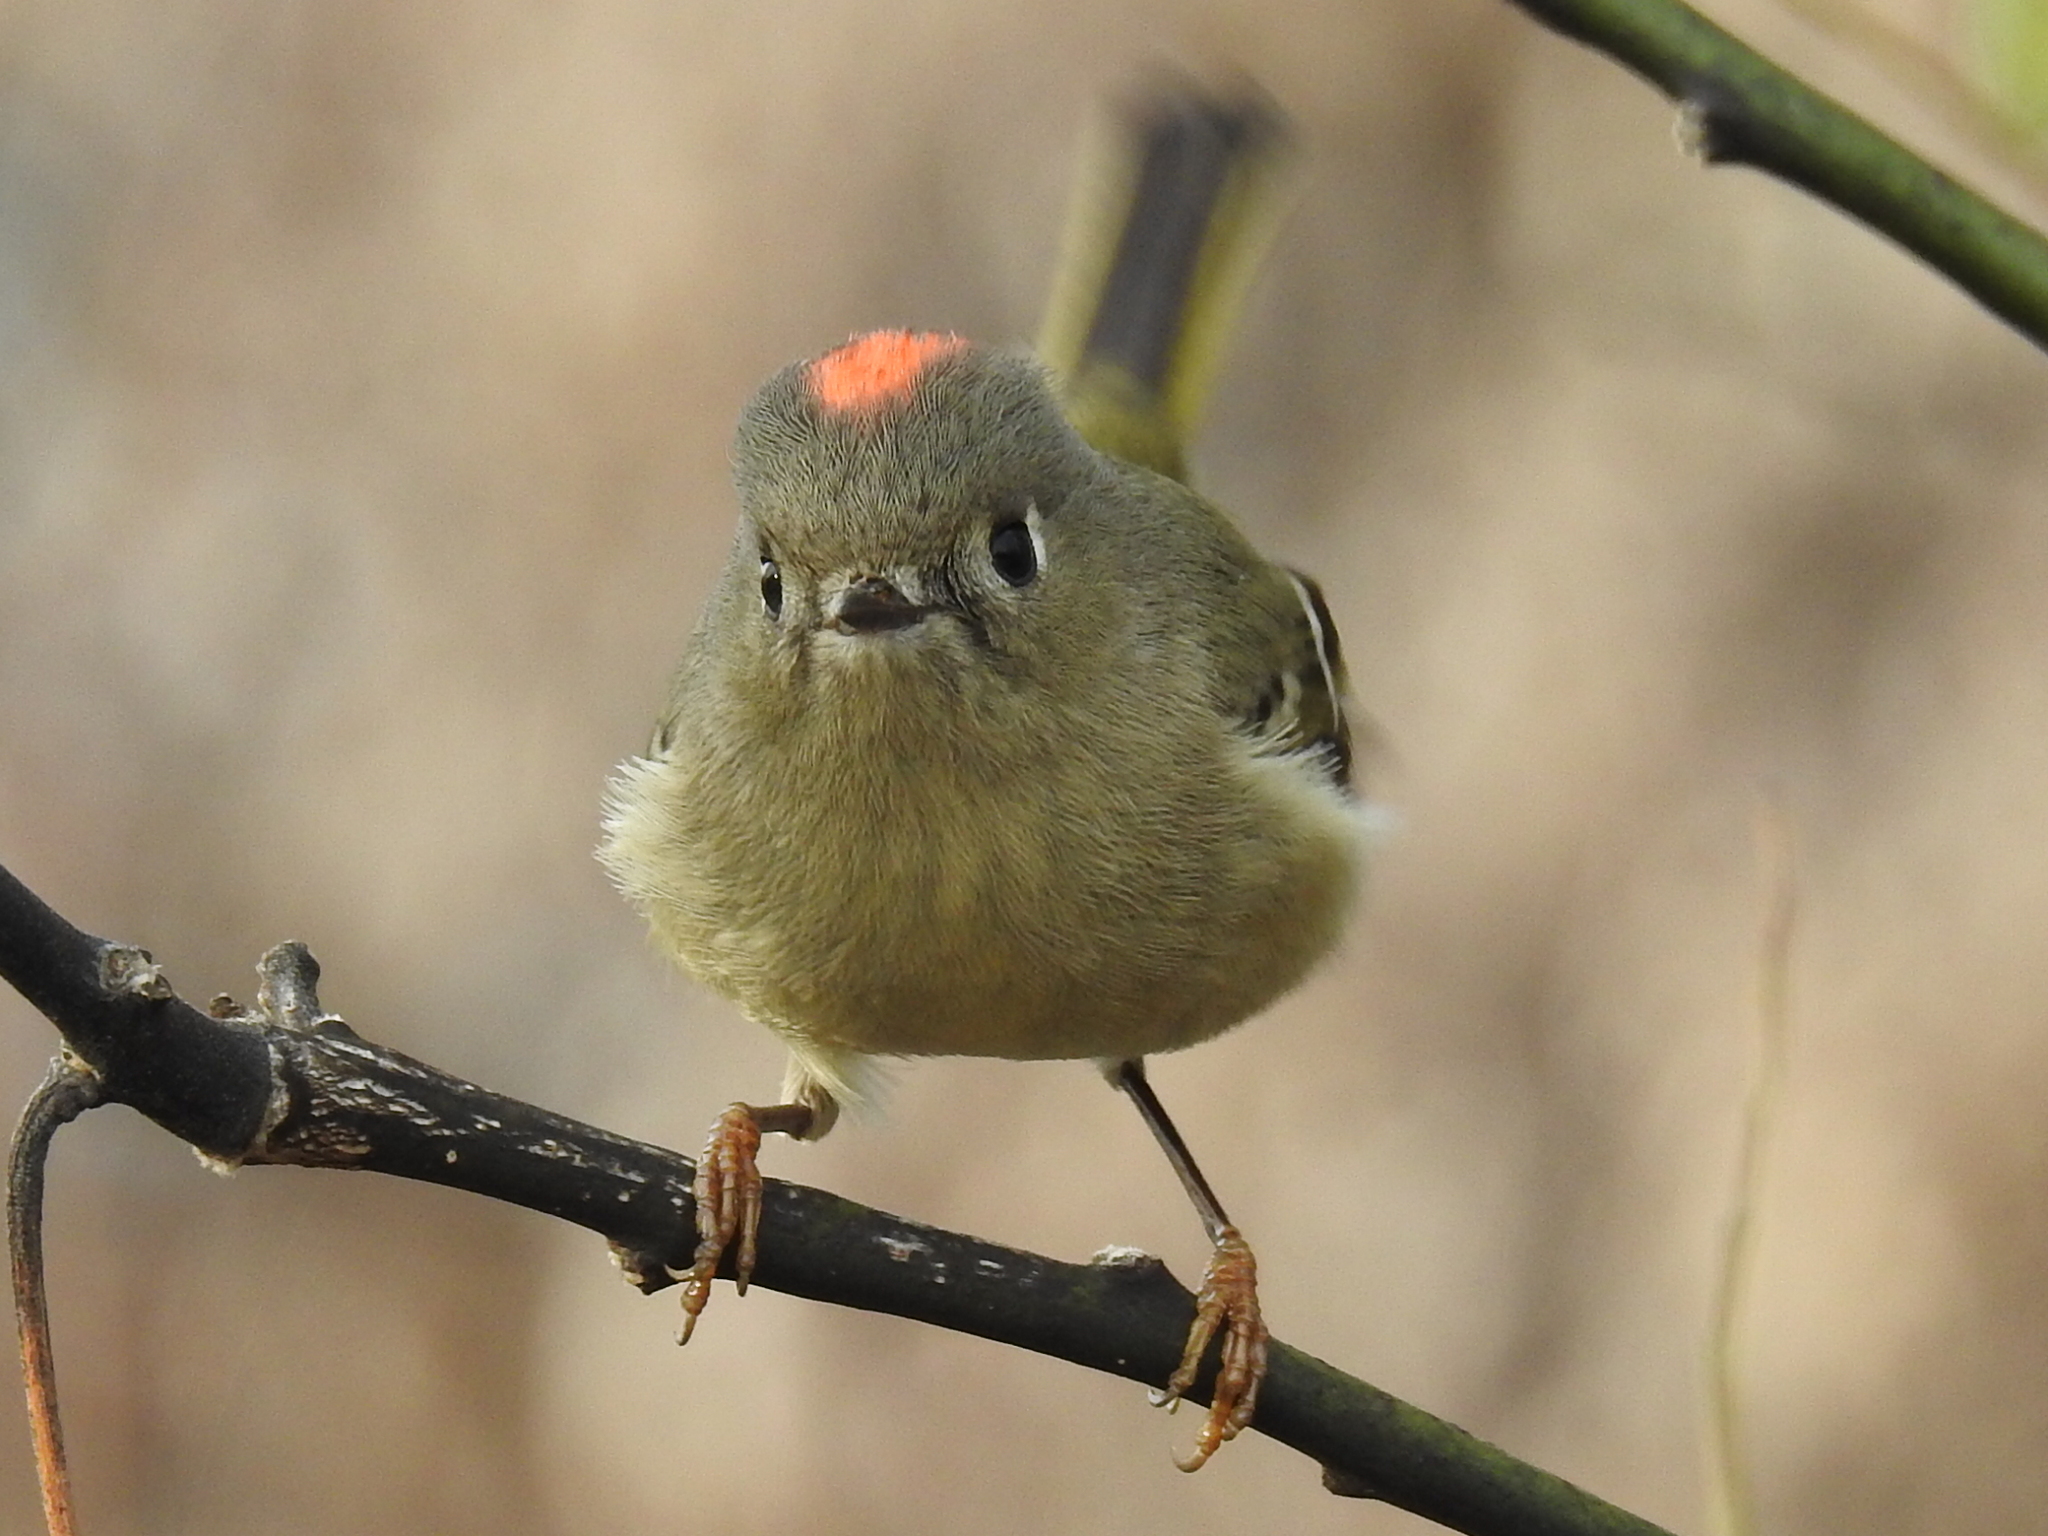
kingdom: Animalia
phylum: Chordata
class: Aves
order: Passeriformes
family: Regulidae
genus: Regulus
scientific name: Regulus calendula
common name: Ruby-crowned kinglet
